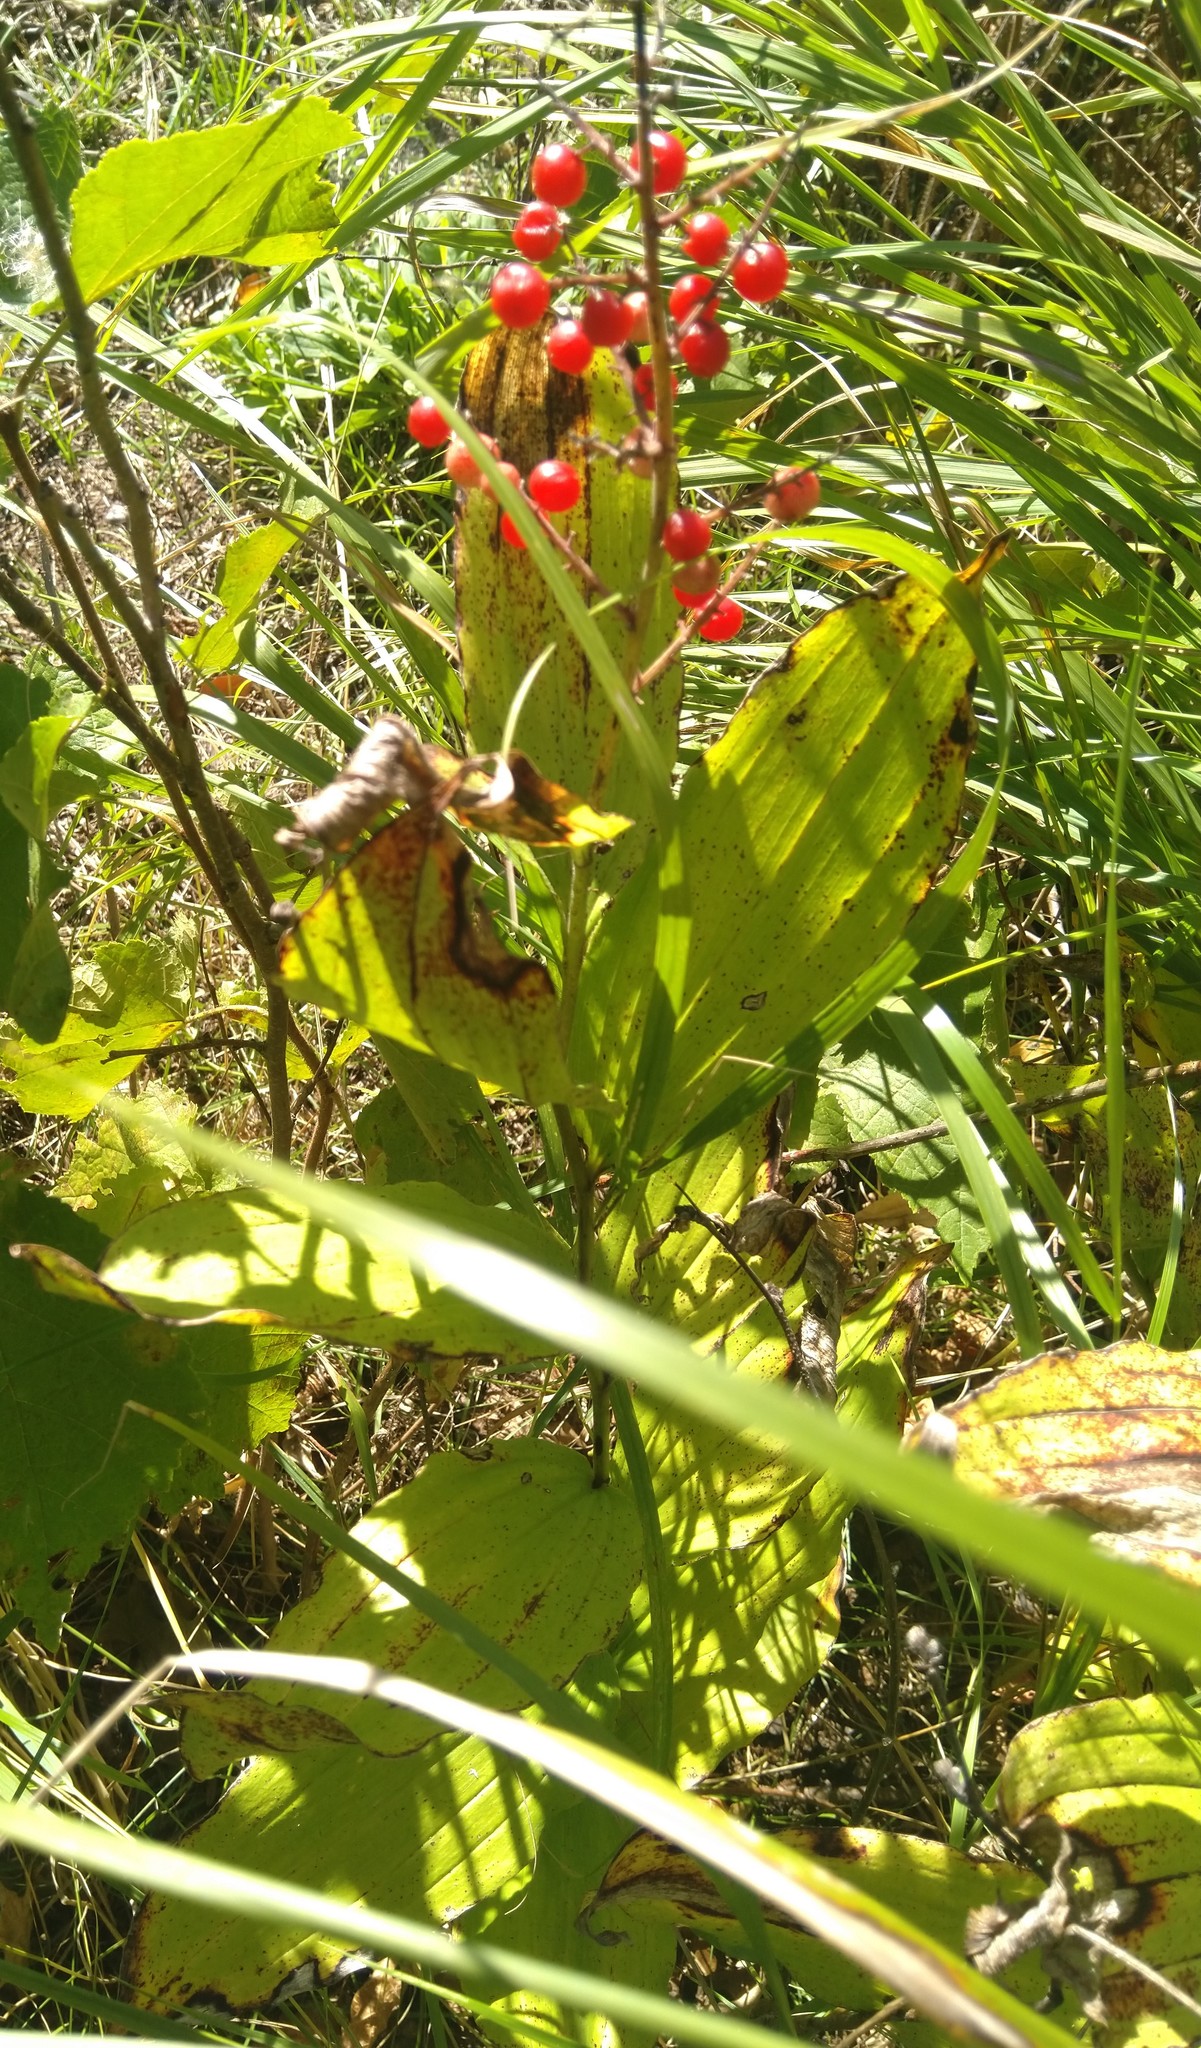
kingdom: Plantae
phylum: Tracheophyta
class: Liliopsida
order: Asparagales
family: Asparagaceae
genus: Maianthemum
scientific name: Maianthemum racemosum
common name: False spikenard
